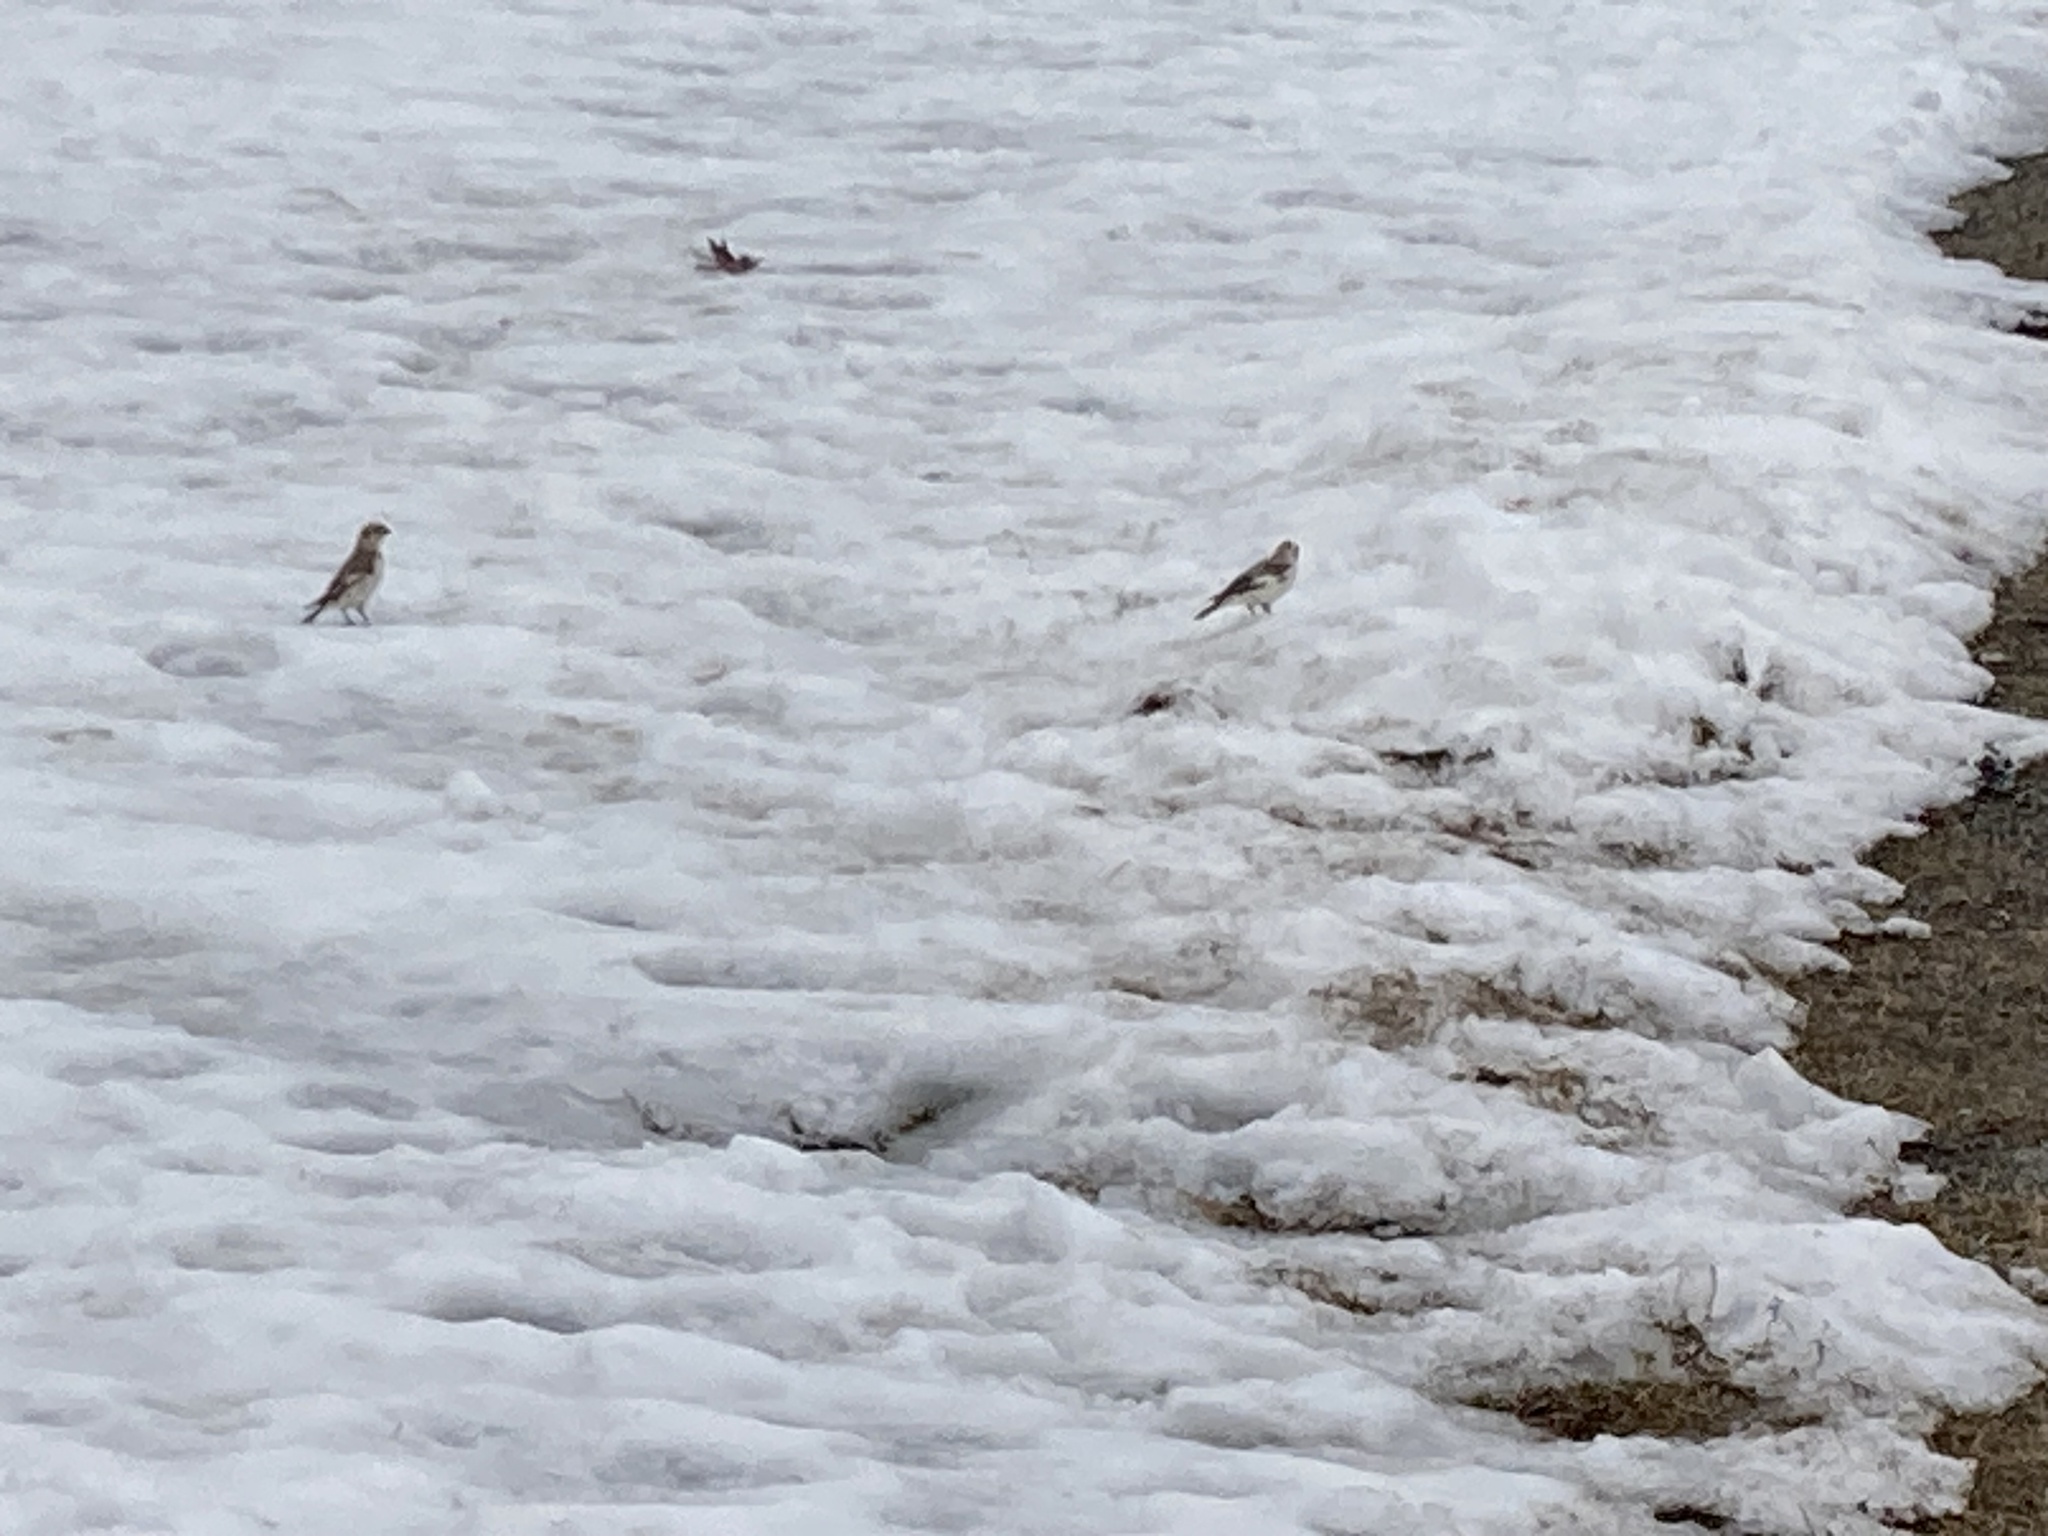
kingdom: Animalia
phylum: Chordata
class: Aves
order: Passeriformes
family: Calcariidae
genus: Plectrophenax
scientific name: Plectrophenax nivalis
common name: Snow bunting
